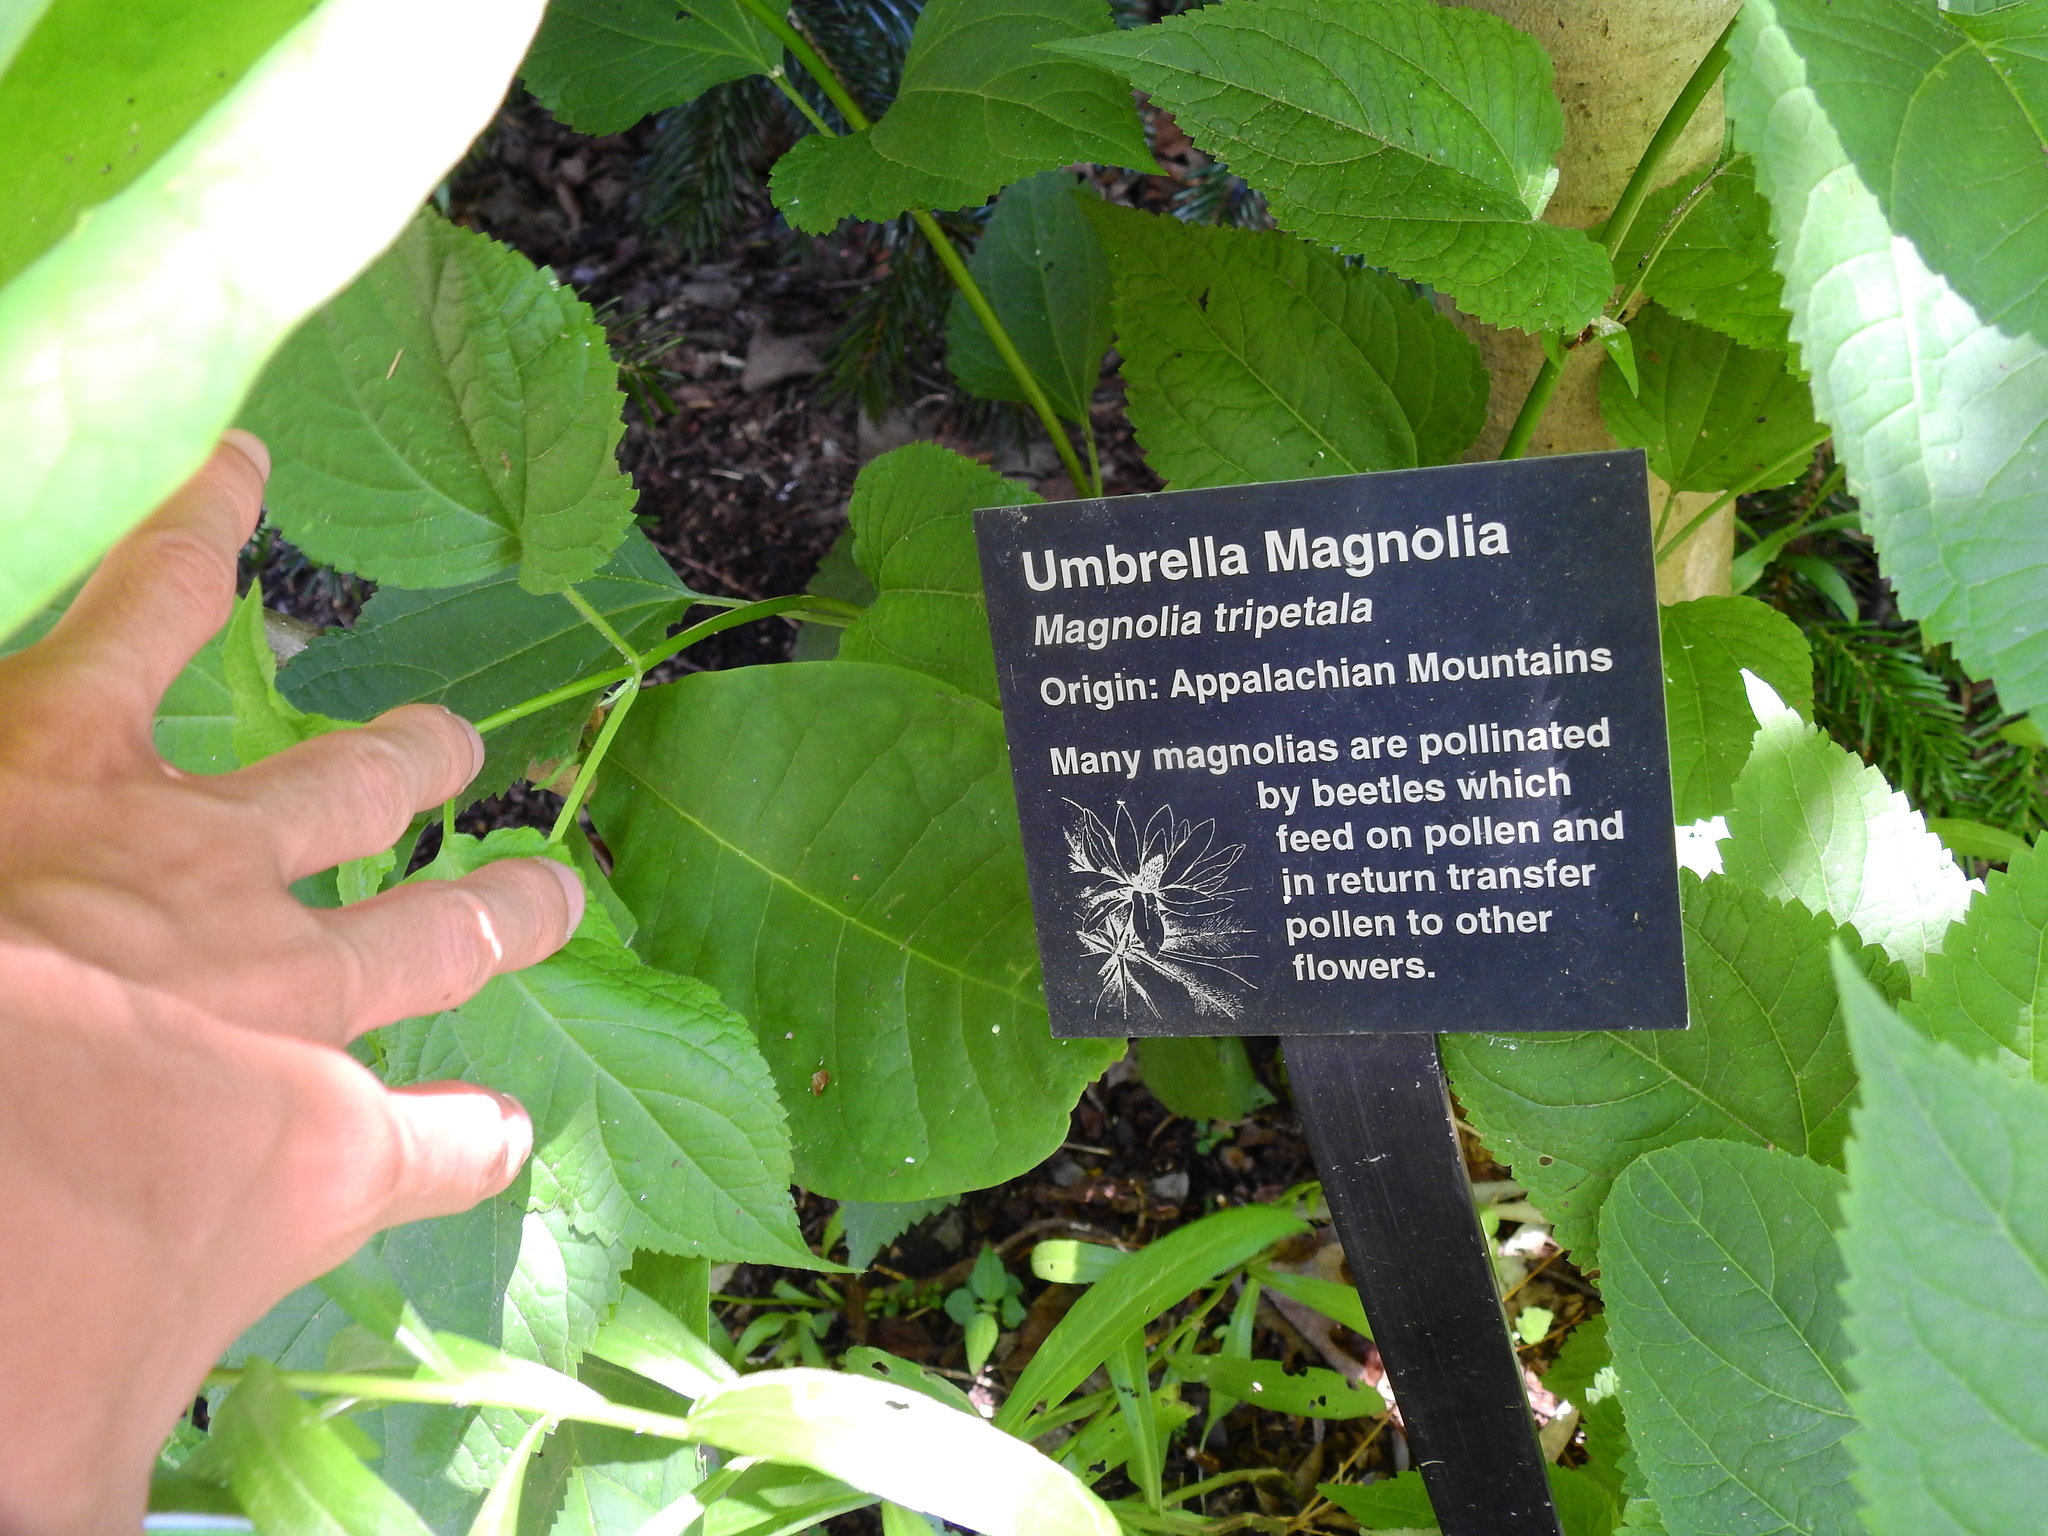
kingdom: Animalia
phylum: Arthropoda
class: Insecta
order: Lepidoptera
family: Gracillariidae
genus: Phyllocnistis
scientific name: Phyllocnistis liriodendronella
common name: Tulip tree leaf miner
